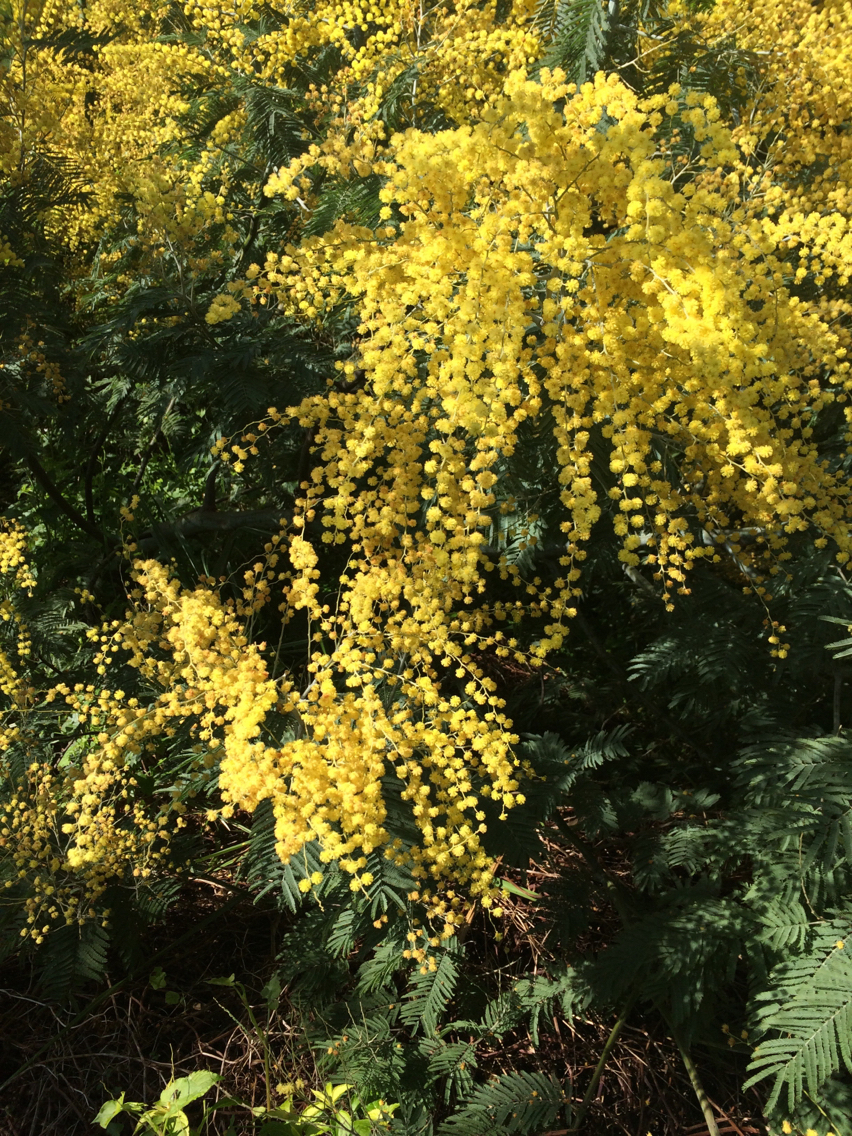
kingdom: Plantae
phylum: Tracheophyta
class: Magnoliopsida
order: Fabales
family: Fabaceae
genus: Acacia
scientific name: Acacia dealbata
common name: Silver wattle
